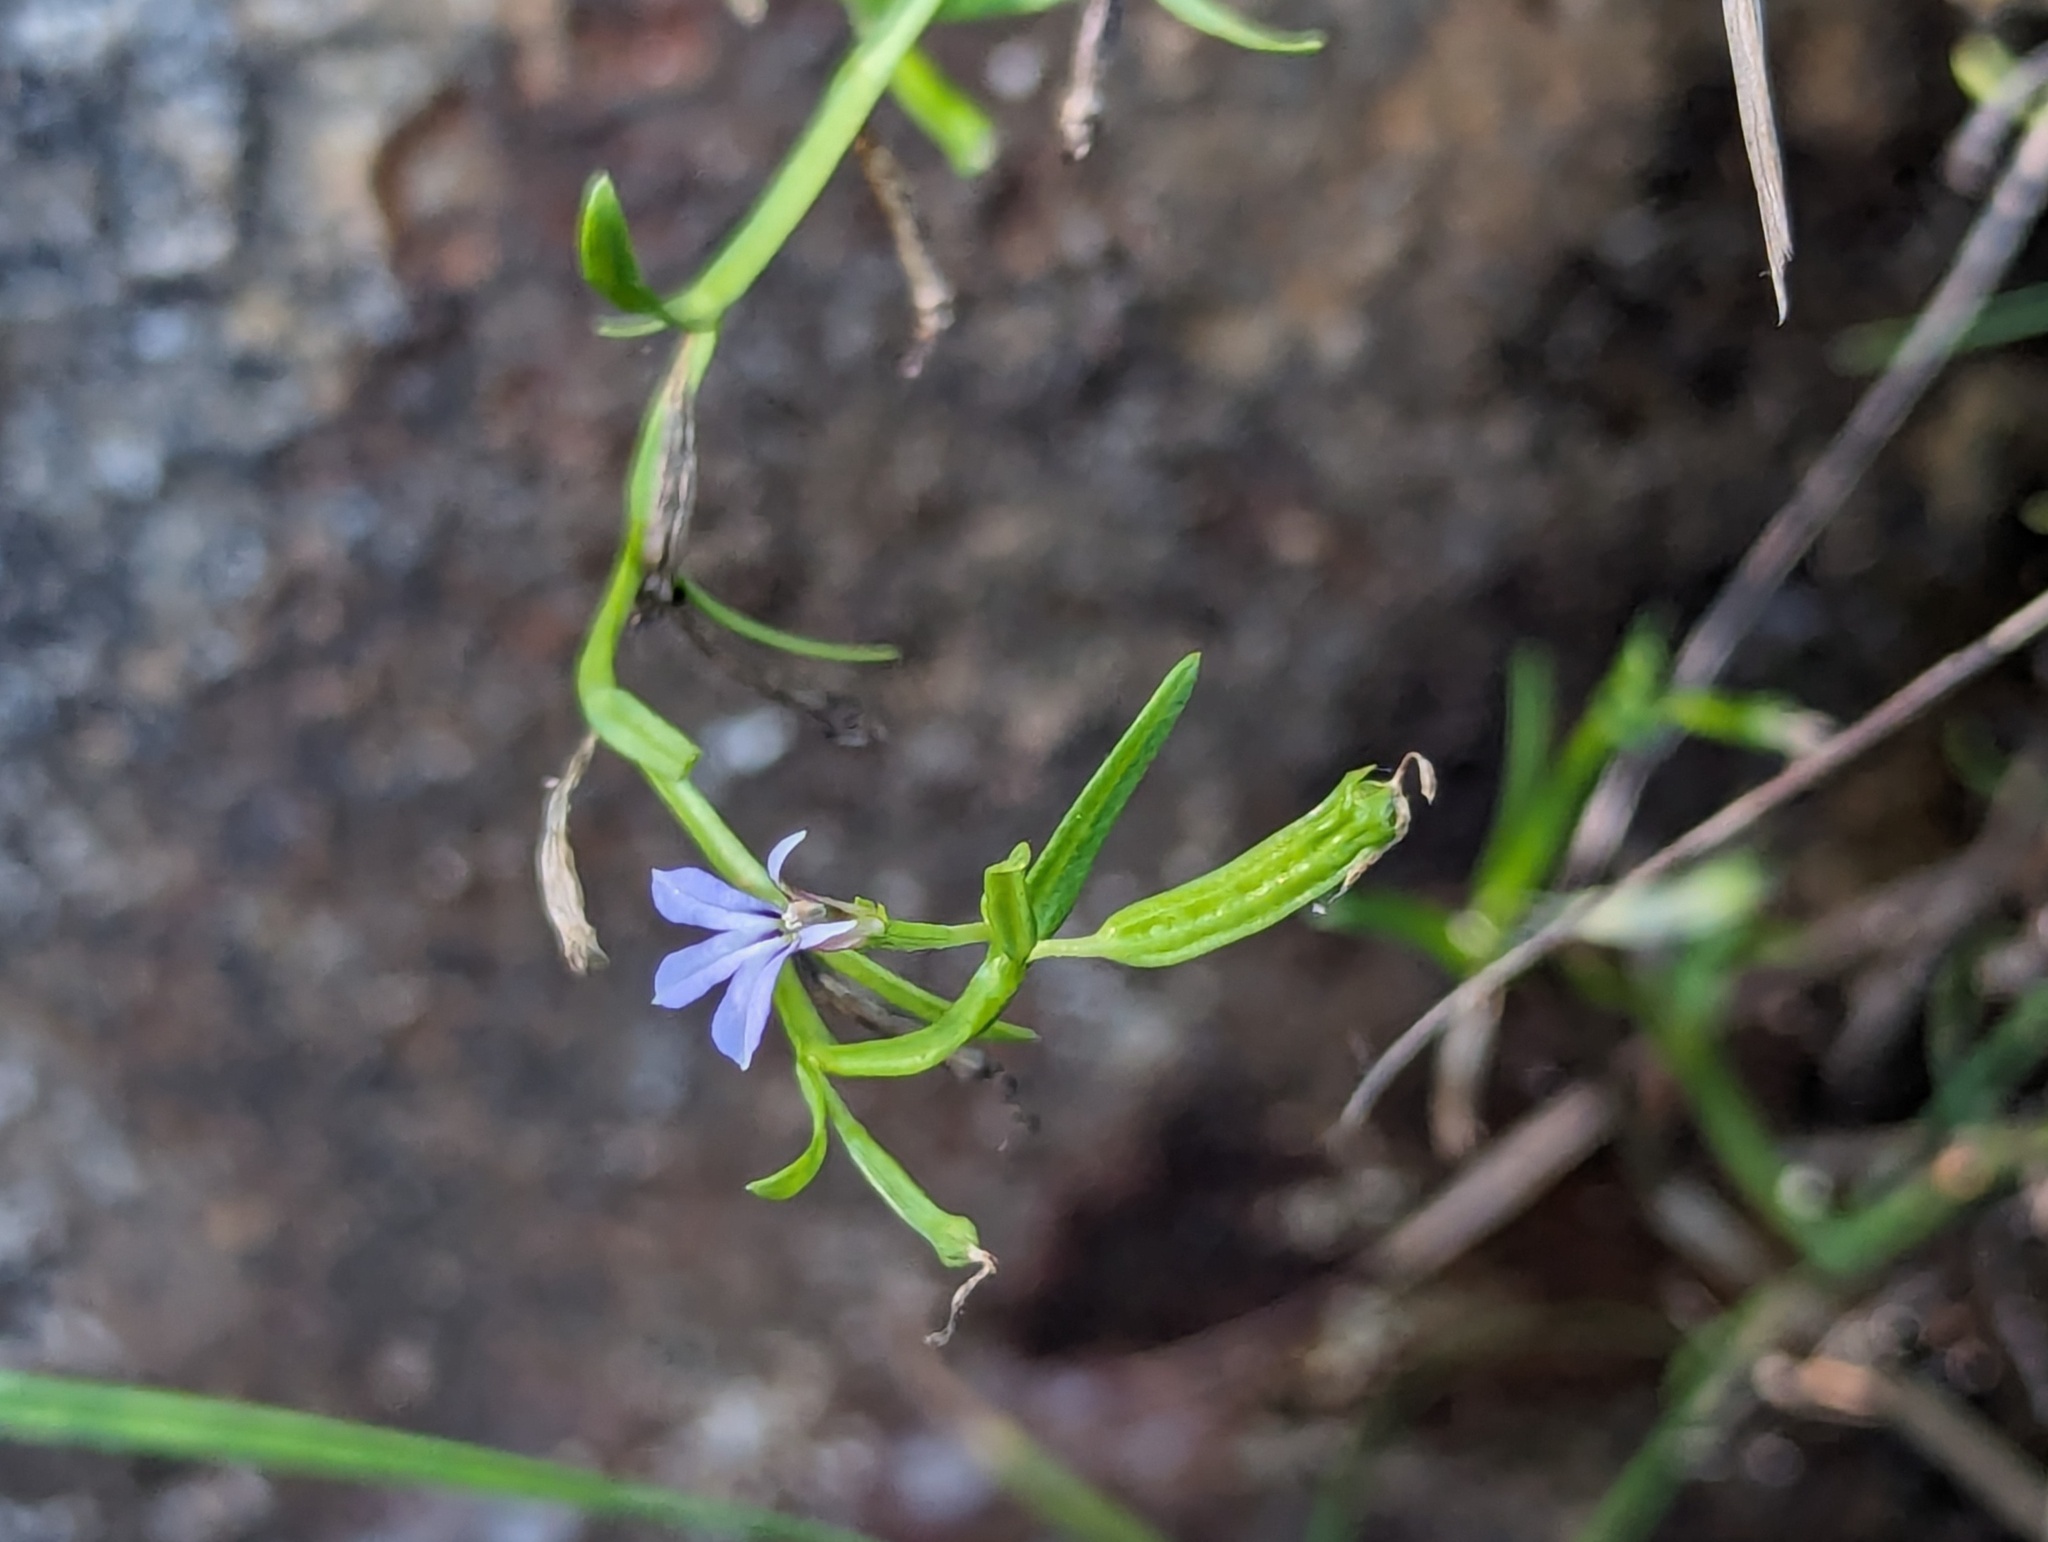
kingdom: Plantae
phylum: Tracheophyta
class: Magnoliopsida
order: Asterales
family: Campanulaceae
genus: Lobelia
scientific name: Lobelia anceps
